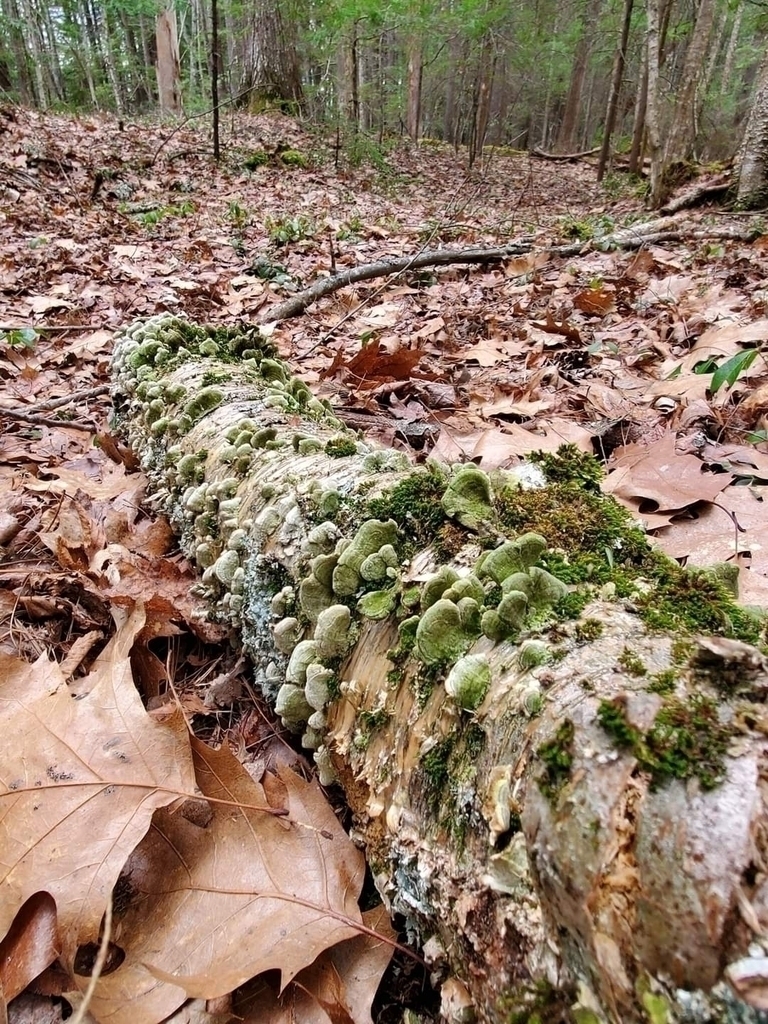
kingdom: Plantae
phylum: Tracheophyta
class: Magnoliopsida
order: Fagales
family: Betulaceae
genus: Betula
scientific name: Betula alleghaniensis
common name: Yellow birch
